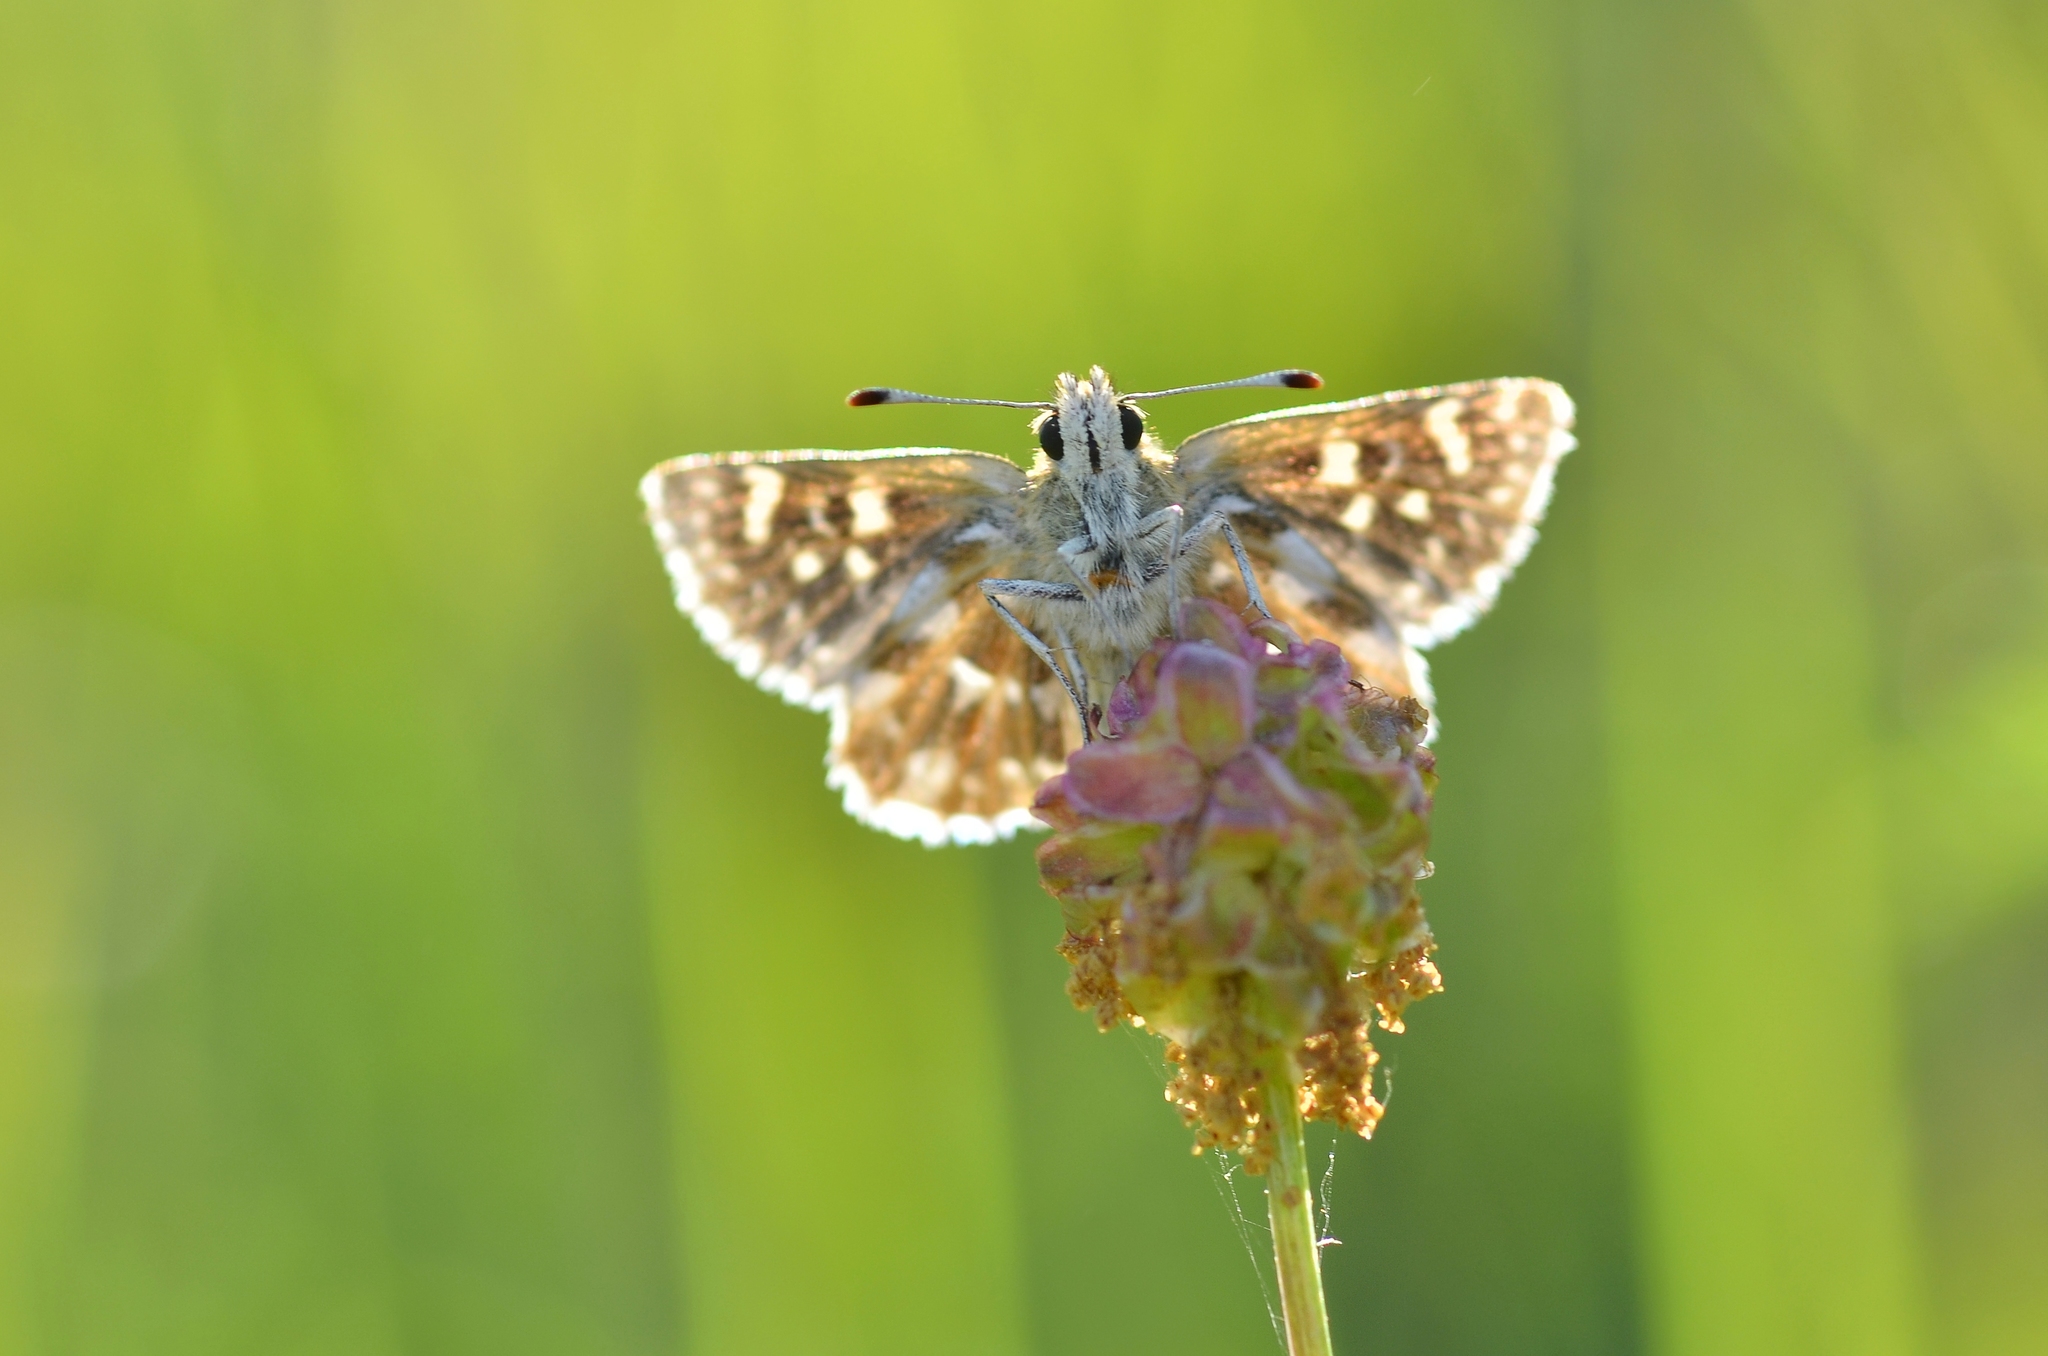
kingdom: Animalia
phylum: Arthropoda
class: Insecta
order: Lepidoptera
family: Hesperiidae
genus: Spialia
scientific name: Spialia sertorius
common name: Red underwing skipper
